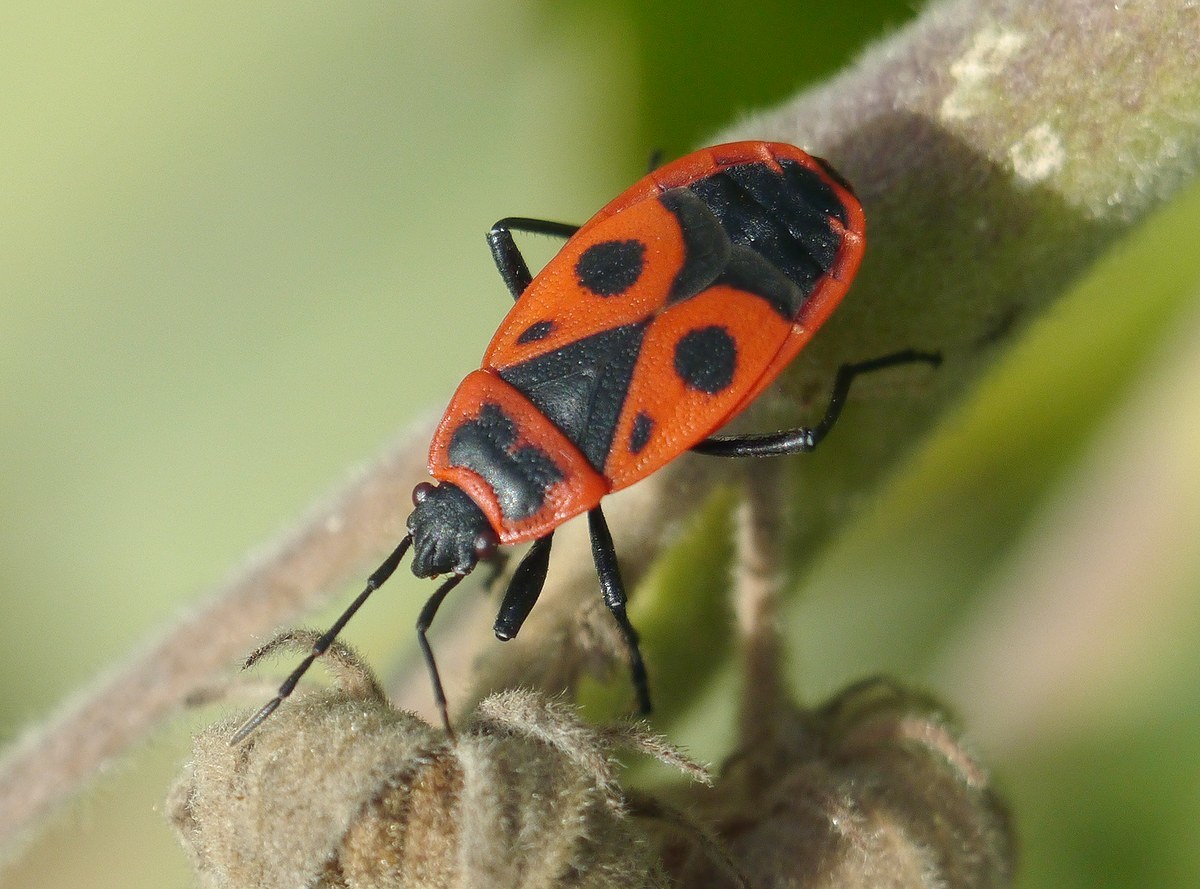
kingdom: Animalia
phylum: Arthropoda
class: Insecta
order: Hemiptera
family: Pyrrhocoridae
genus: Pyrrhocoris
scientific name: Pyrrhocoris apterus
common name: Firebug
